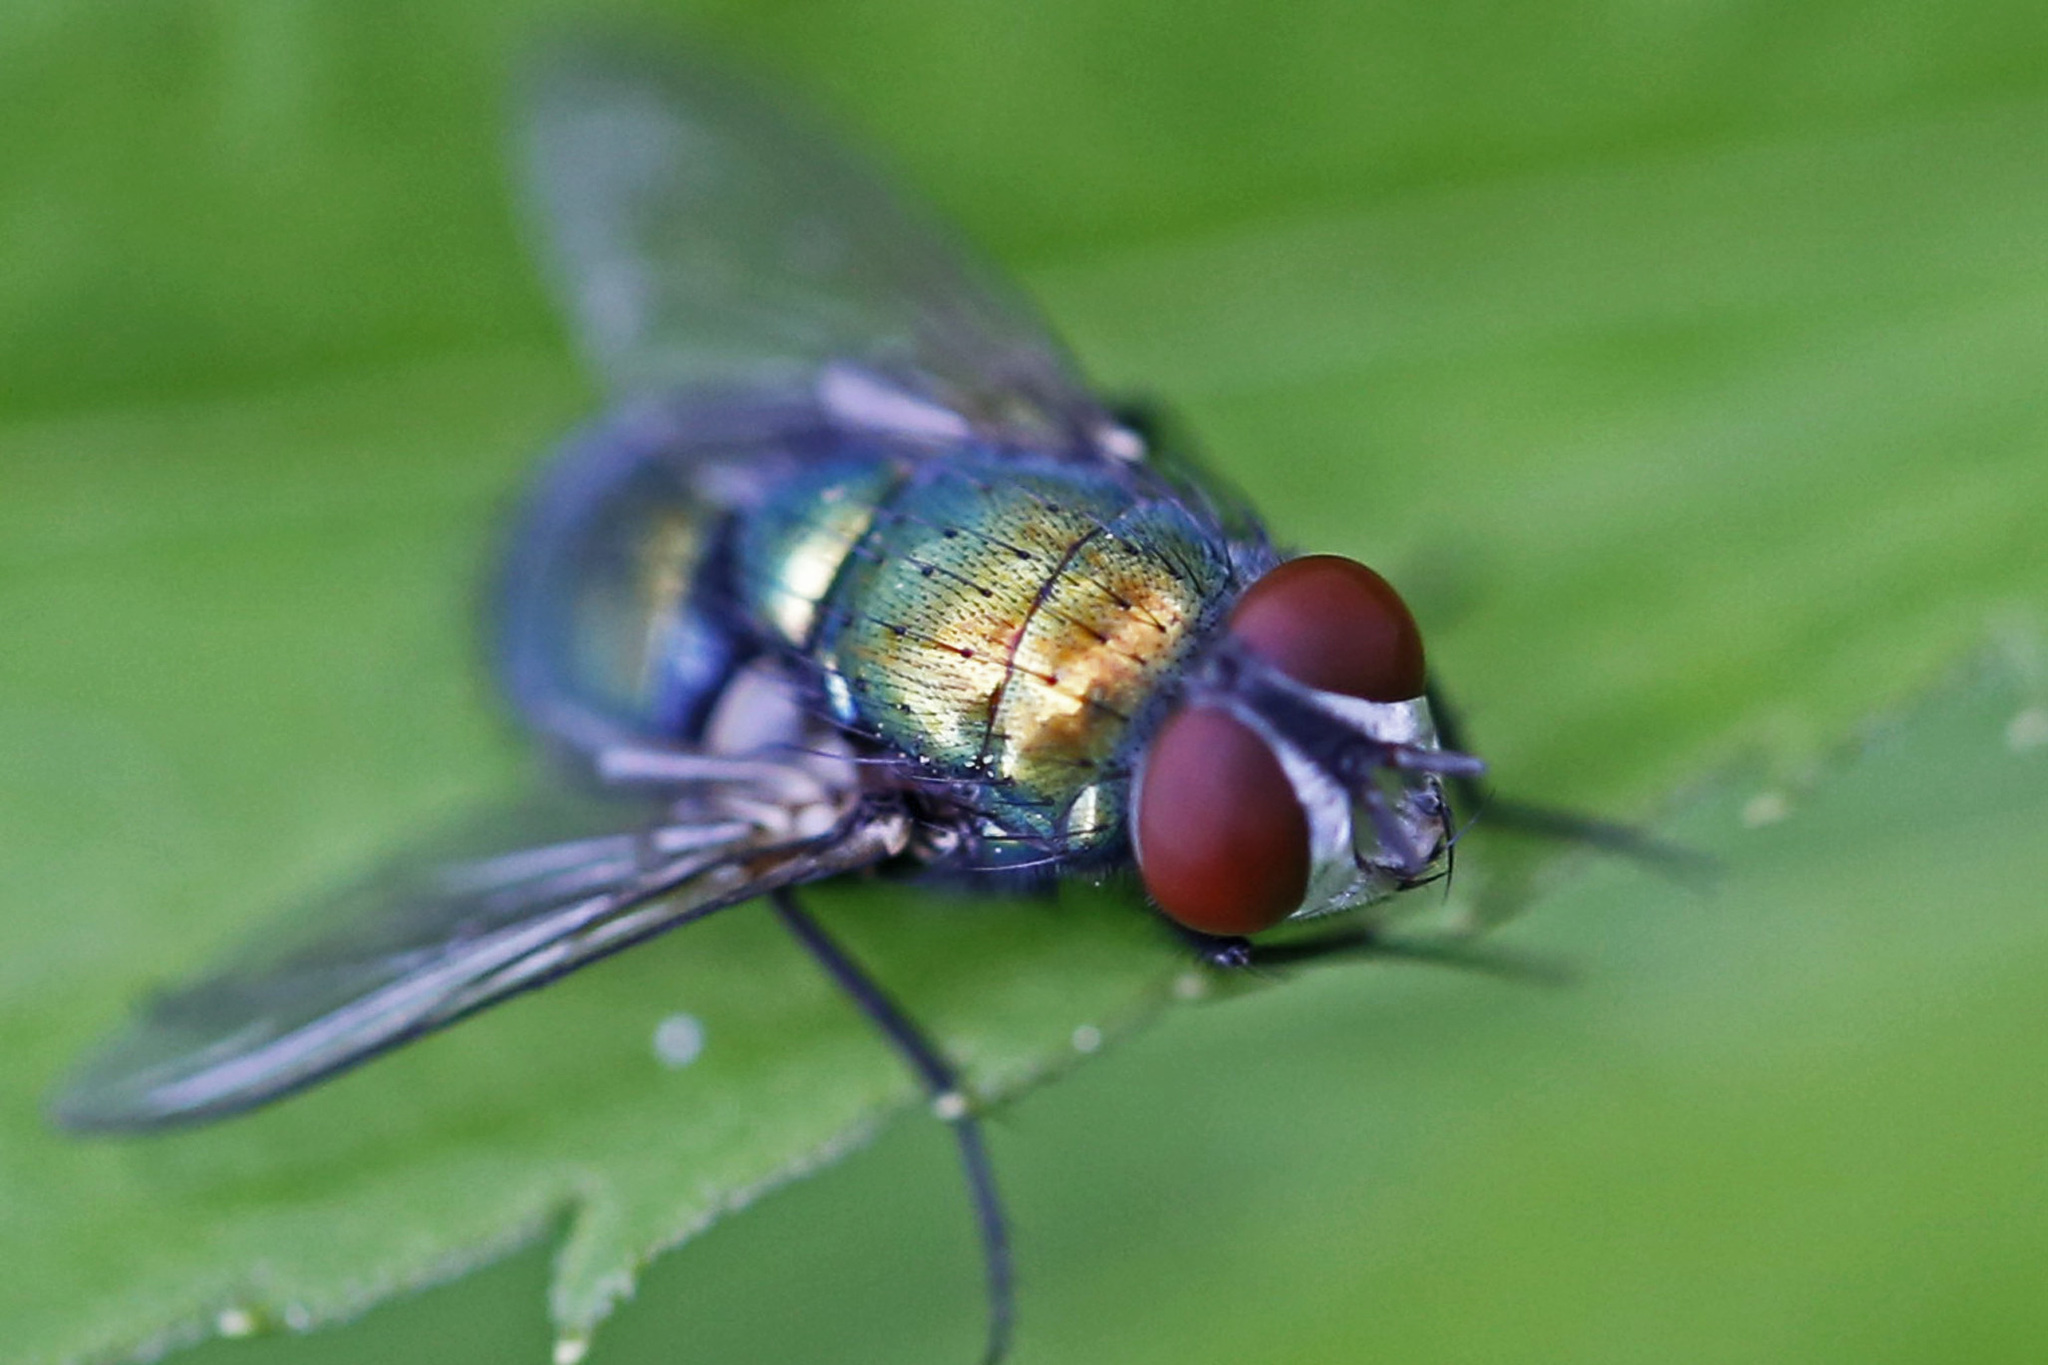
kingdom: Animalia
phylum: Arthropoda
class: Insecta
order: Diptera
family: Calliphoridae
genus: Lucilia
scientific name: Lucilia sericata
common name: Blow fly
